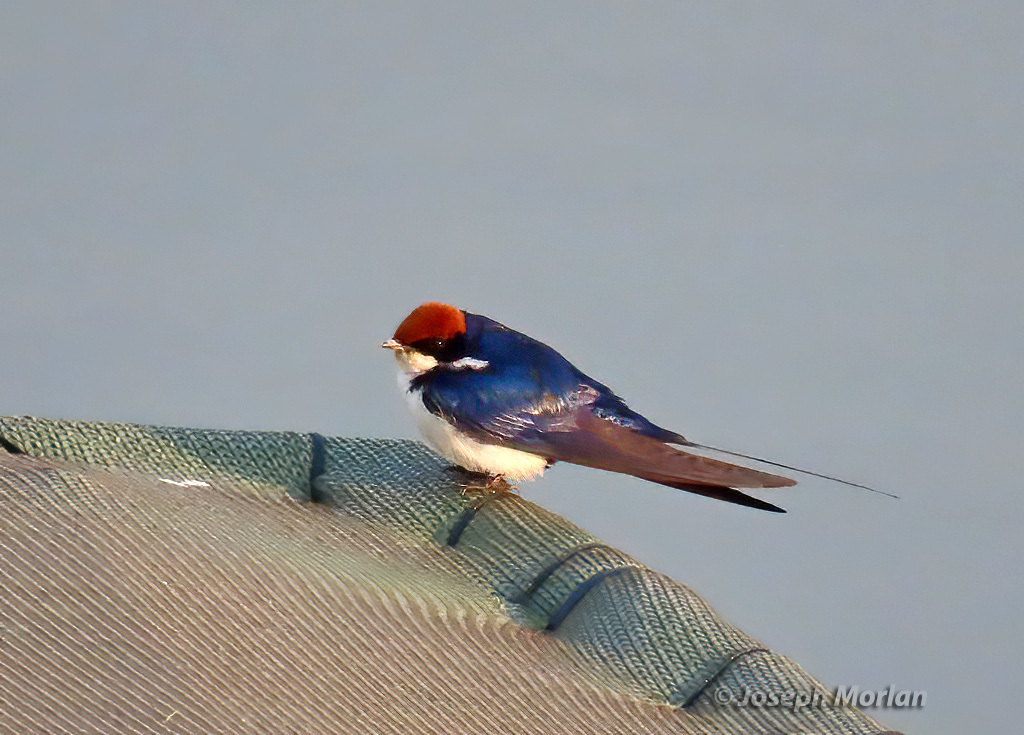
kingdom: Animalia
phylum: Chordata
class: Aves
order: Passeriformes
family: Hirundinidae
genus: Hirundo
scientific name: Hirundo smithii
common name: Wire-tailed swallow
